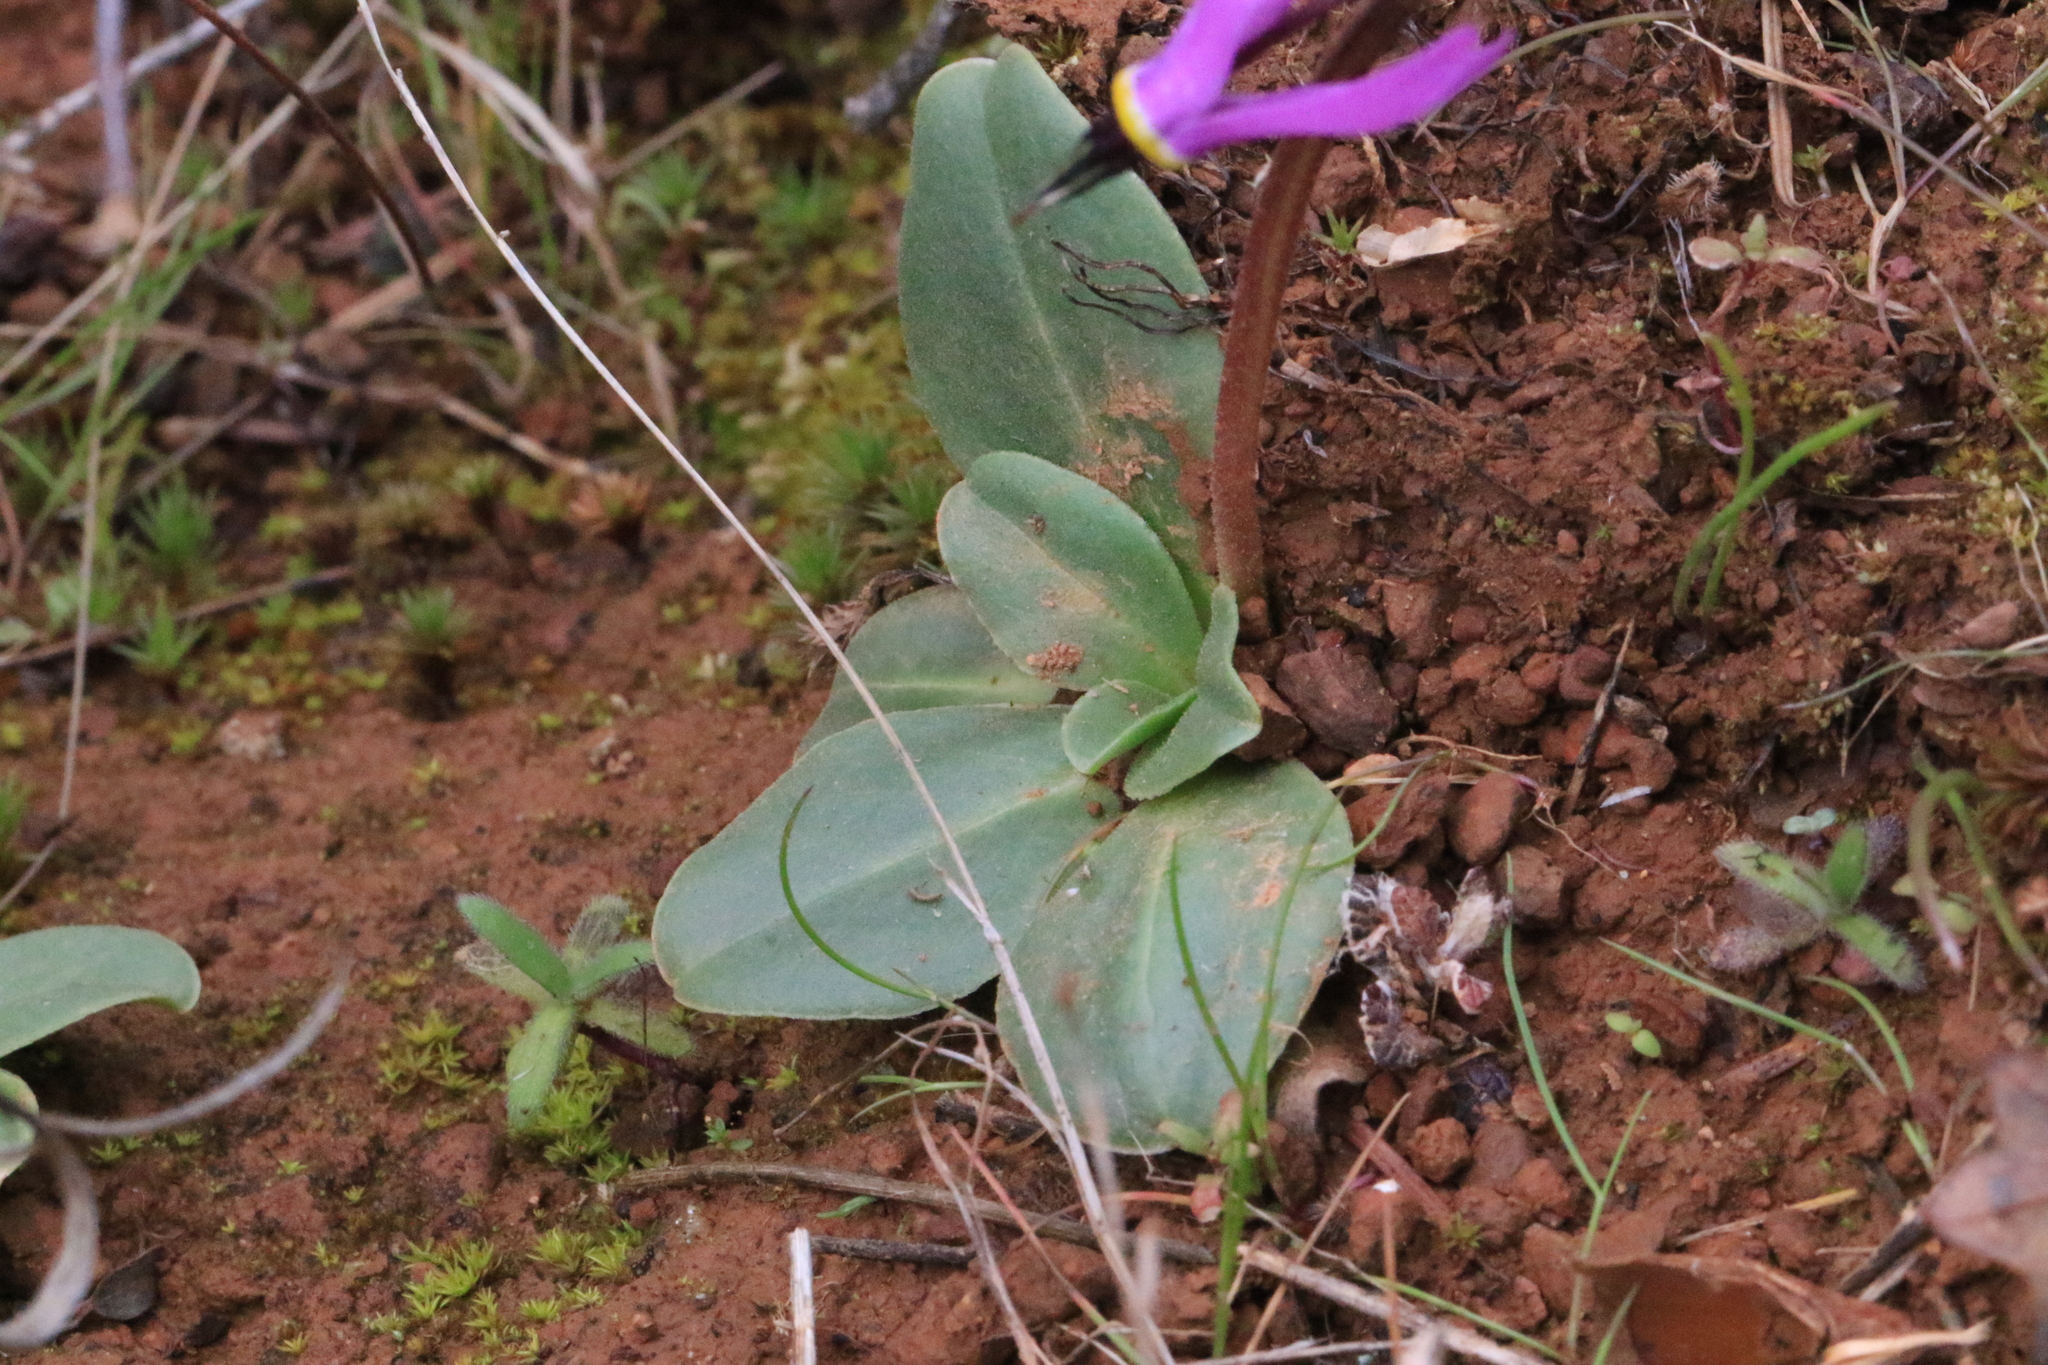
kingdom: Plantae
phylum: Tracheophyta
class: Magnoliopsida
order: Ericales
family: Primulaceae
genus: Dodecatheon
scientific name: Dodecatheon hendersonii
